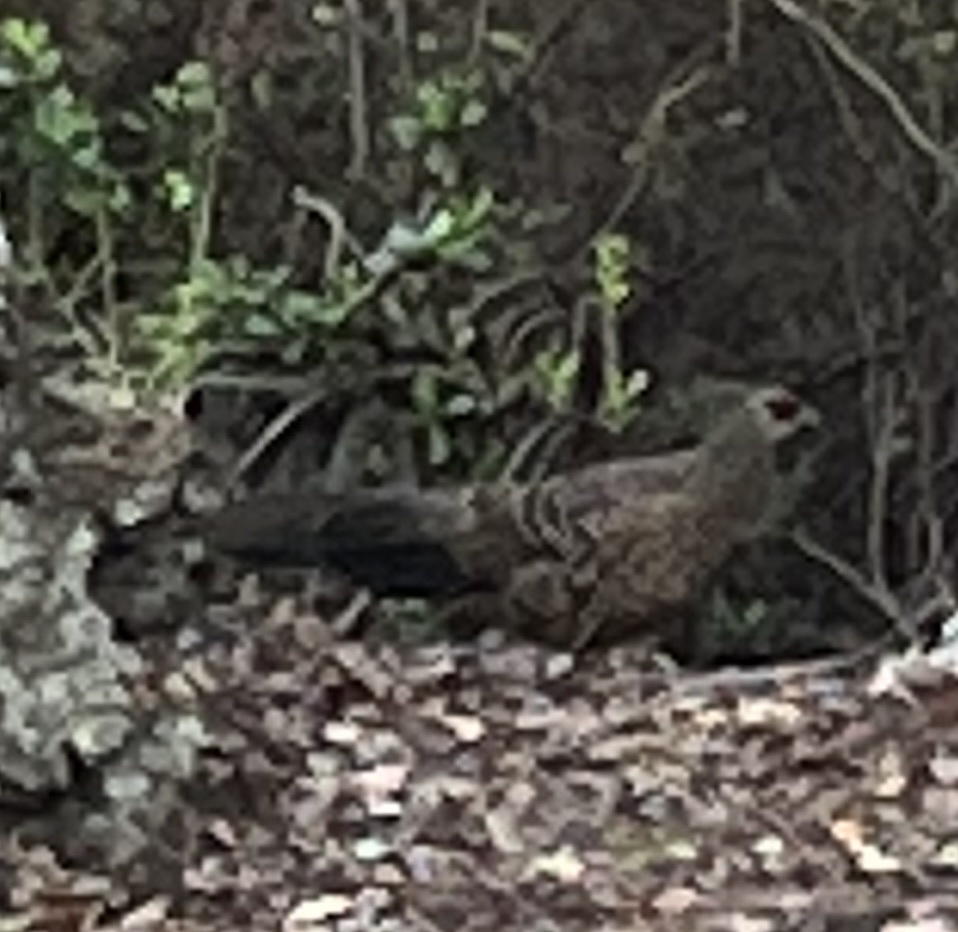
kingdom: Animalia
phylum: Chordata
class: Aves
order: Galliformes
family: Phasianidae
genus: Lophura
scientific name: Lophura leucomelanos
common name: Kalij pheasant
